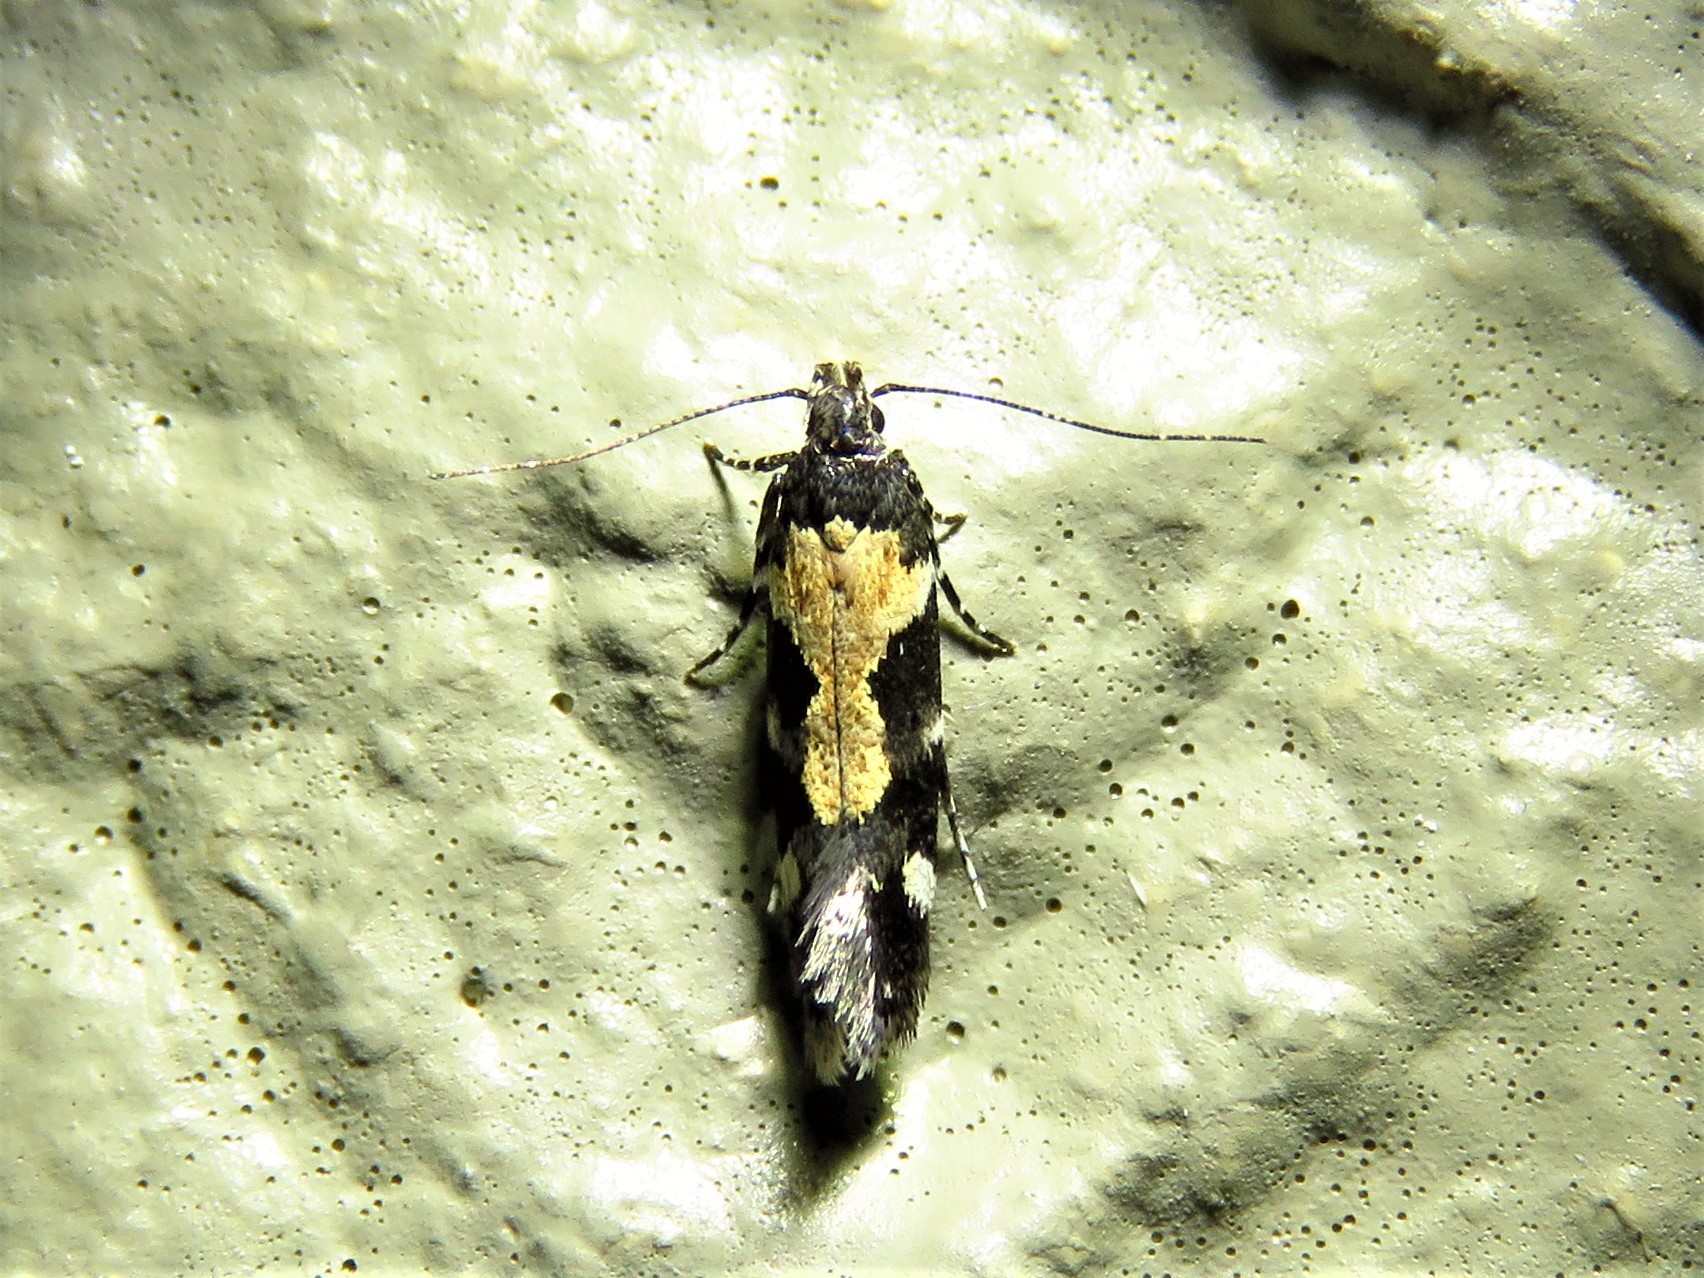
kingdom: Animalia
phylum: Arthropoda
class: Insecta
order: Lepidoptera
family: Gelechiidae
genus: Stegasta
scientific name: Stegasta bosqueella
